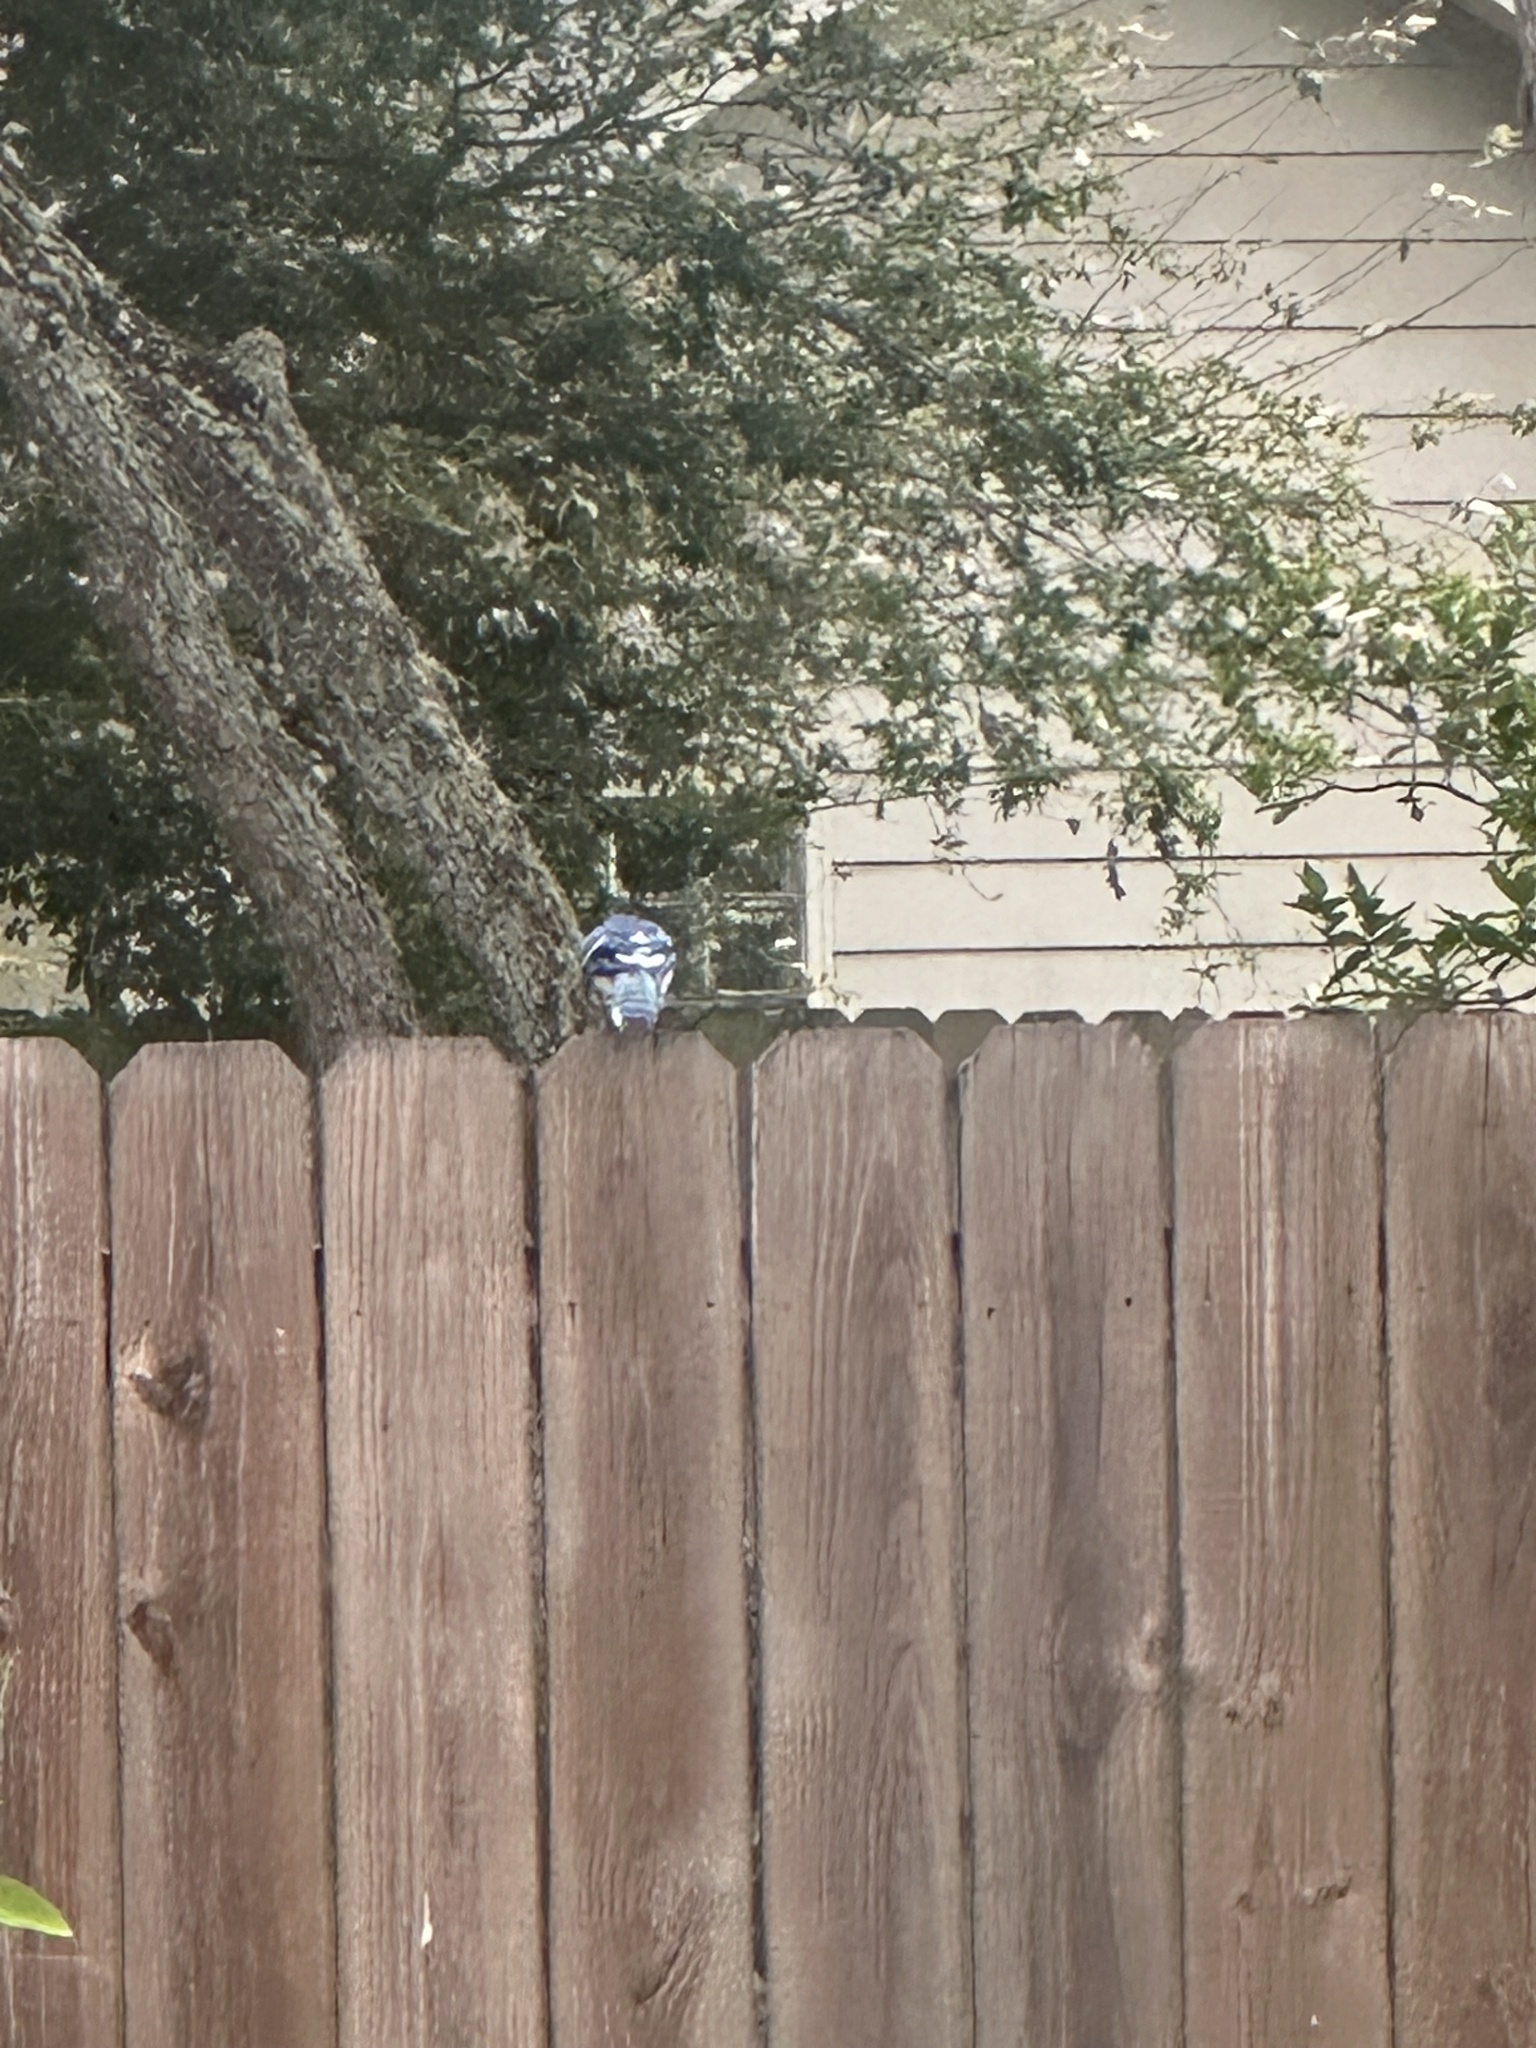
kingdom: Animalia
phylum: Chordata
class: Aves
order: Passeriformes
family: Corvidae
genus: Cyanocitta
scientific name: Cyanocitta cristata
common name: Blue jay
